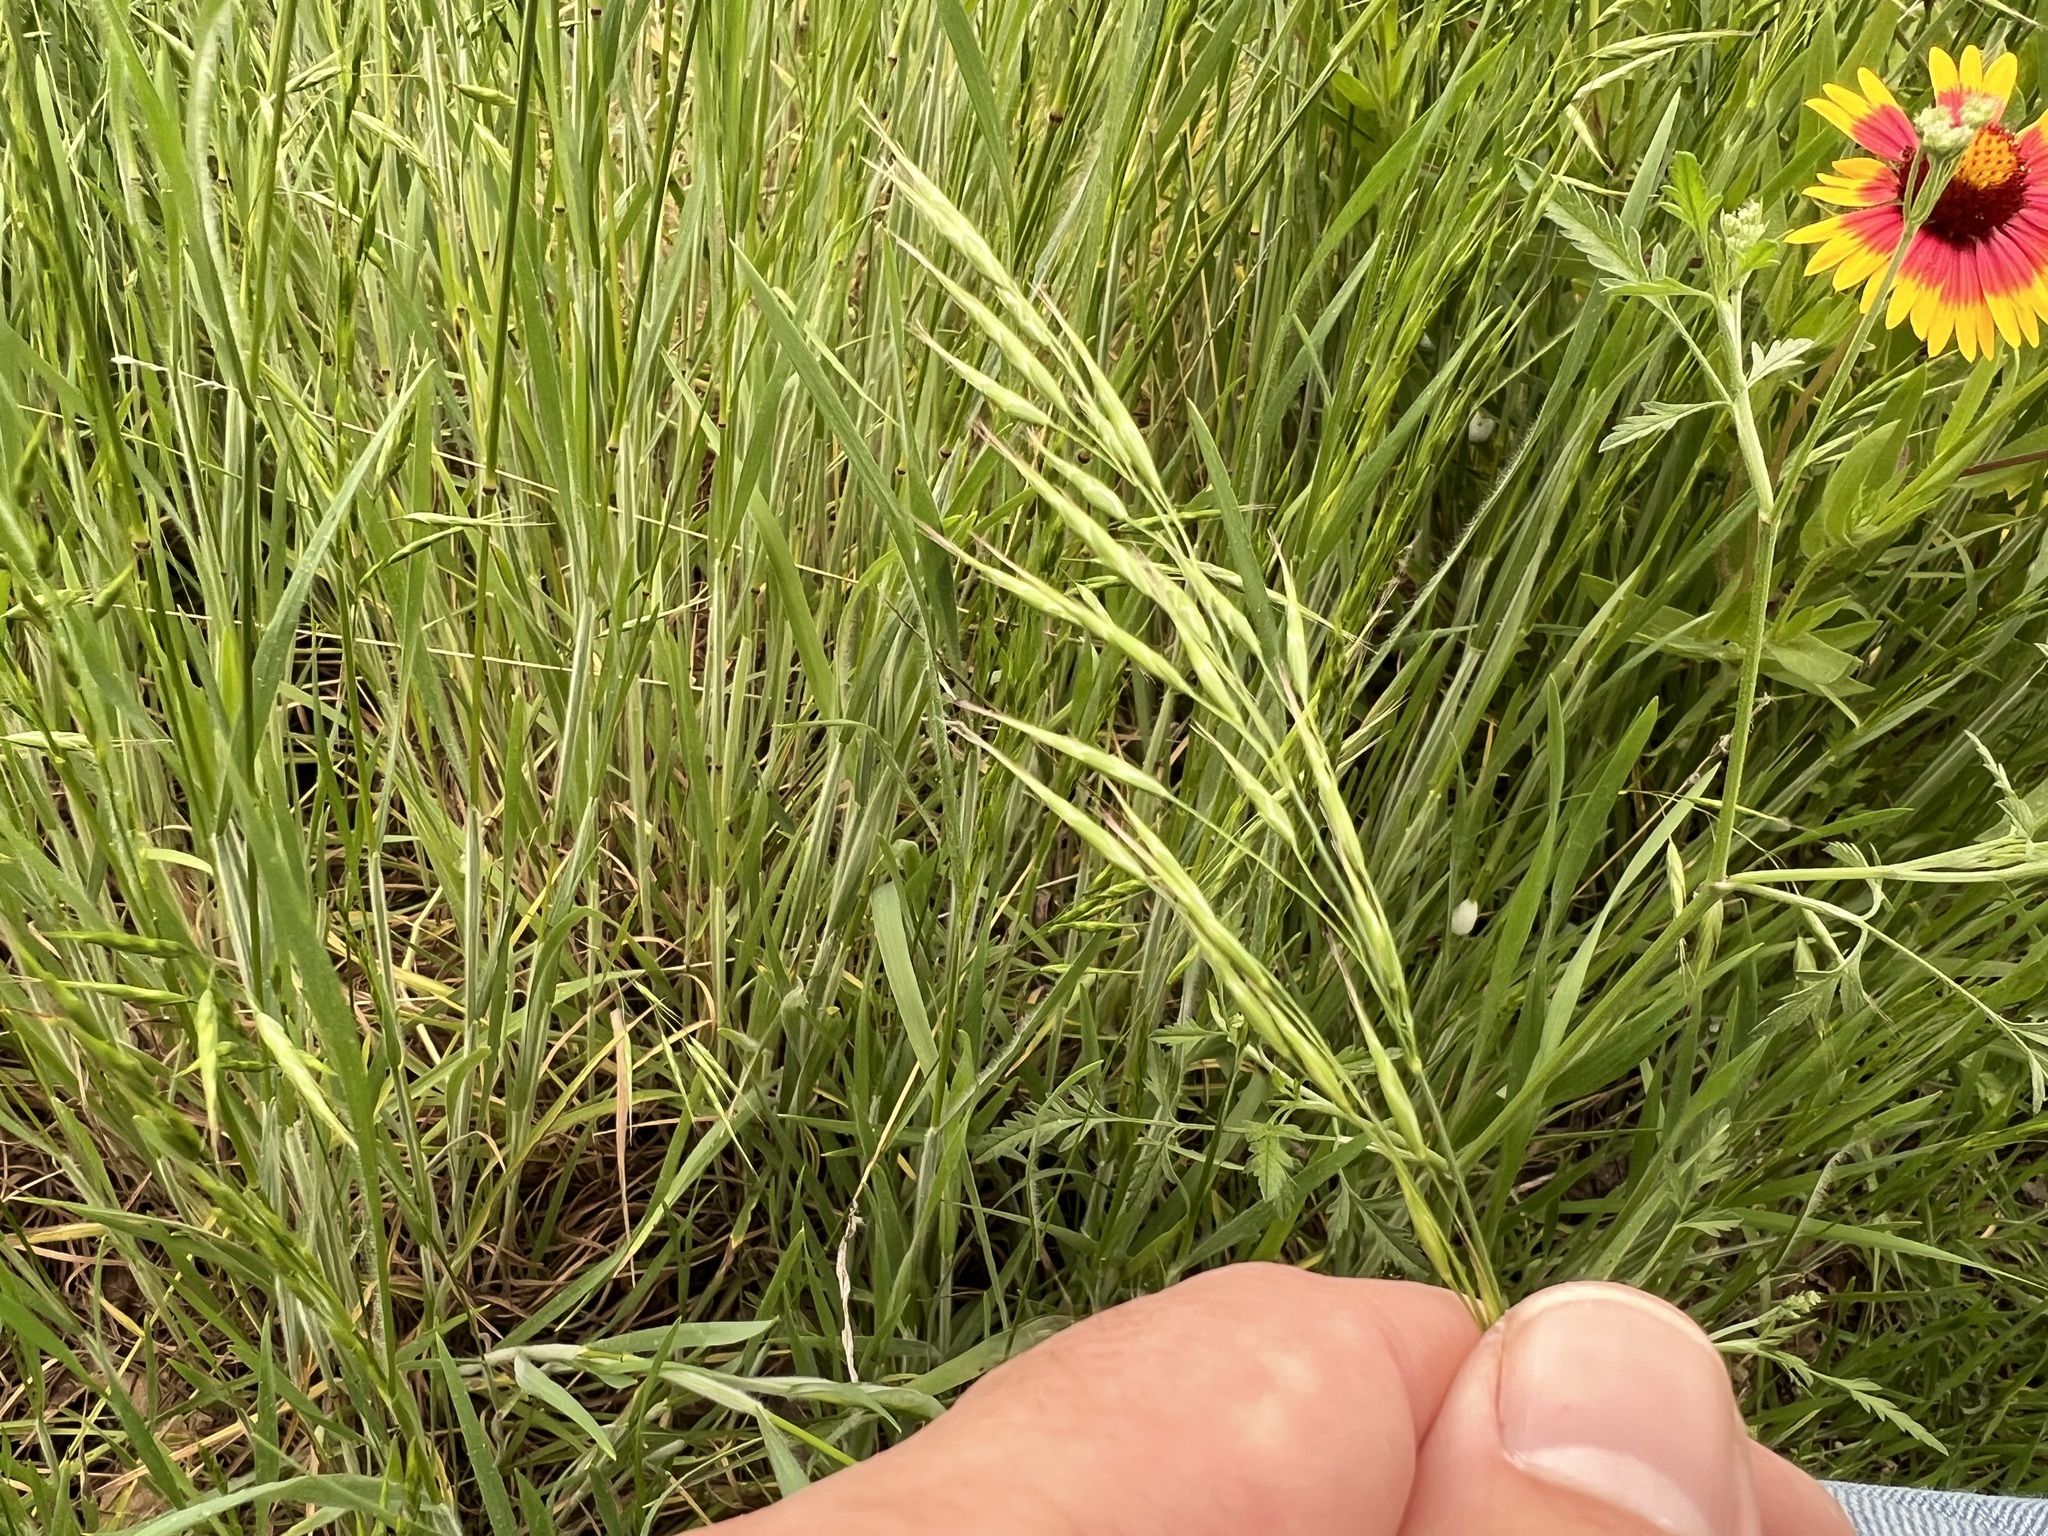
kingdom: Plantae
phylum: Tracheophyta
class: Liliopsida
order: Poales
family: Poaceae
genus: Bromus
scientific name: Bromus japonicus
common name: Japanese brome
